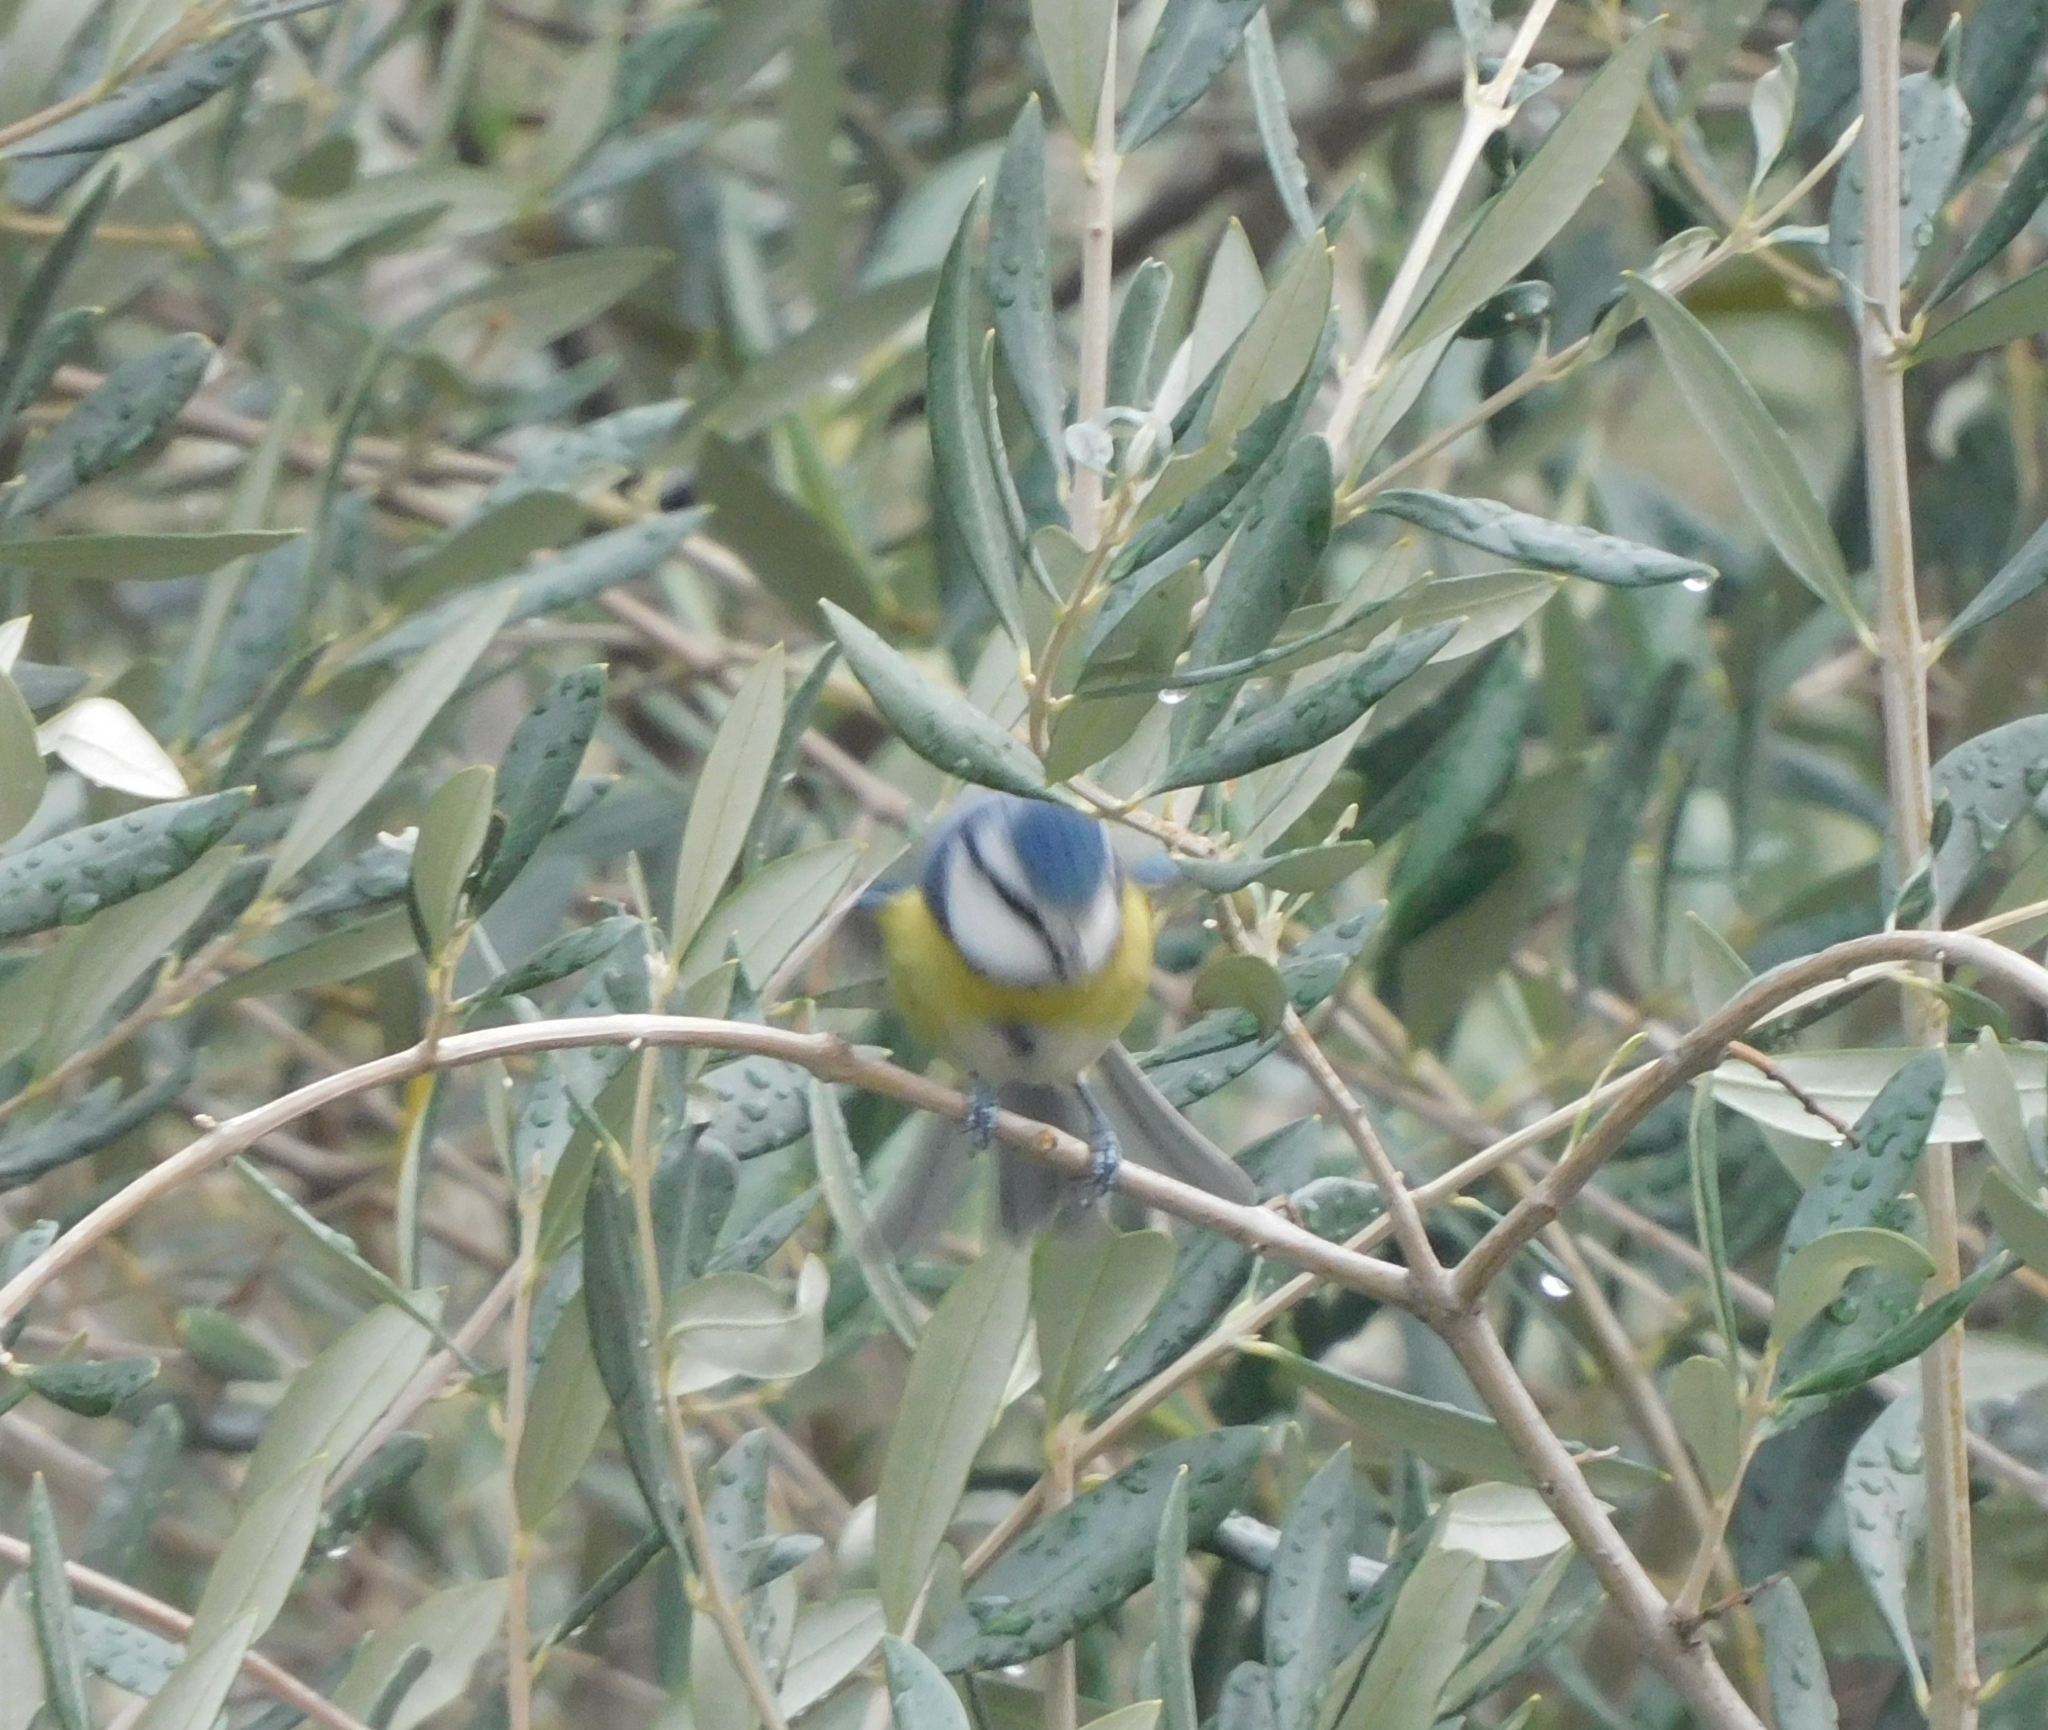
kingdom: Animalia
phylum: Chordata
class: Aves
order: Passeriformes
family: Paridae
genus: Cyanistes
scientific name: Cyanistes caeruleus
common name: Eurasian blue tit
